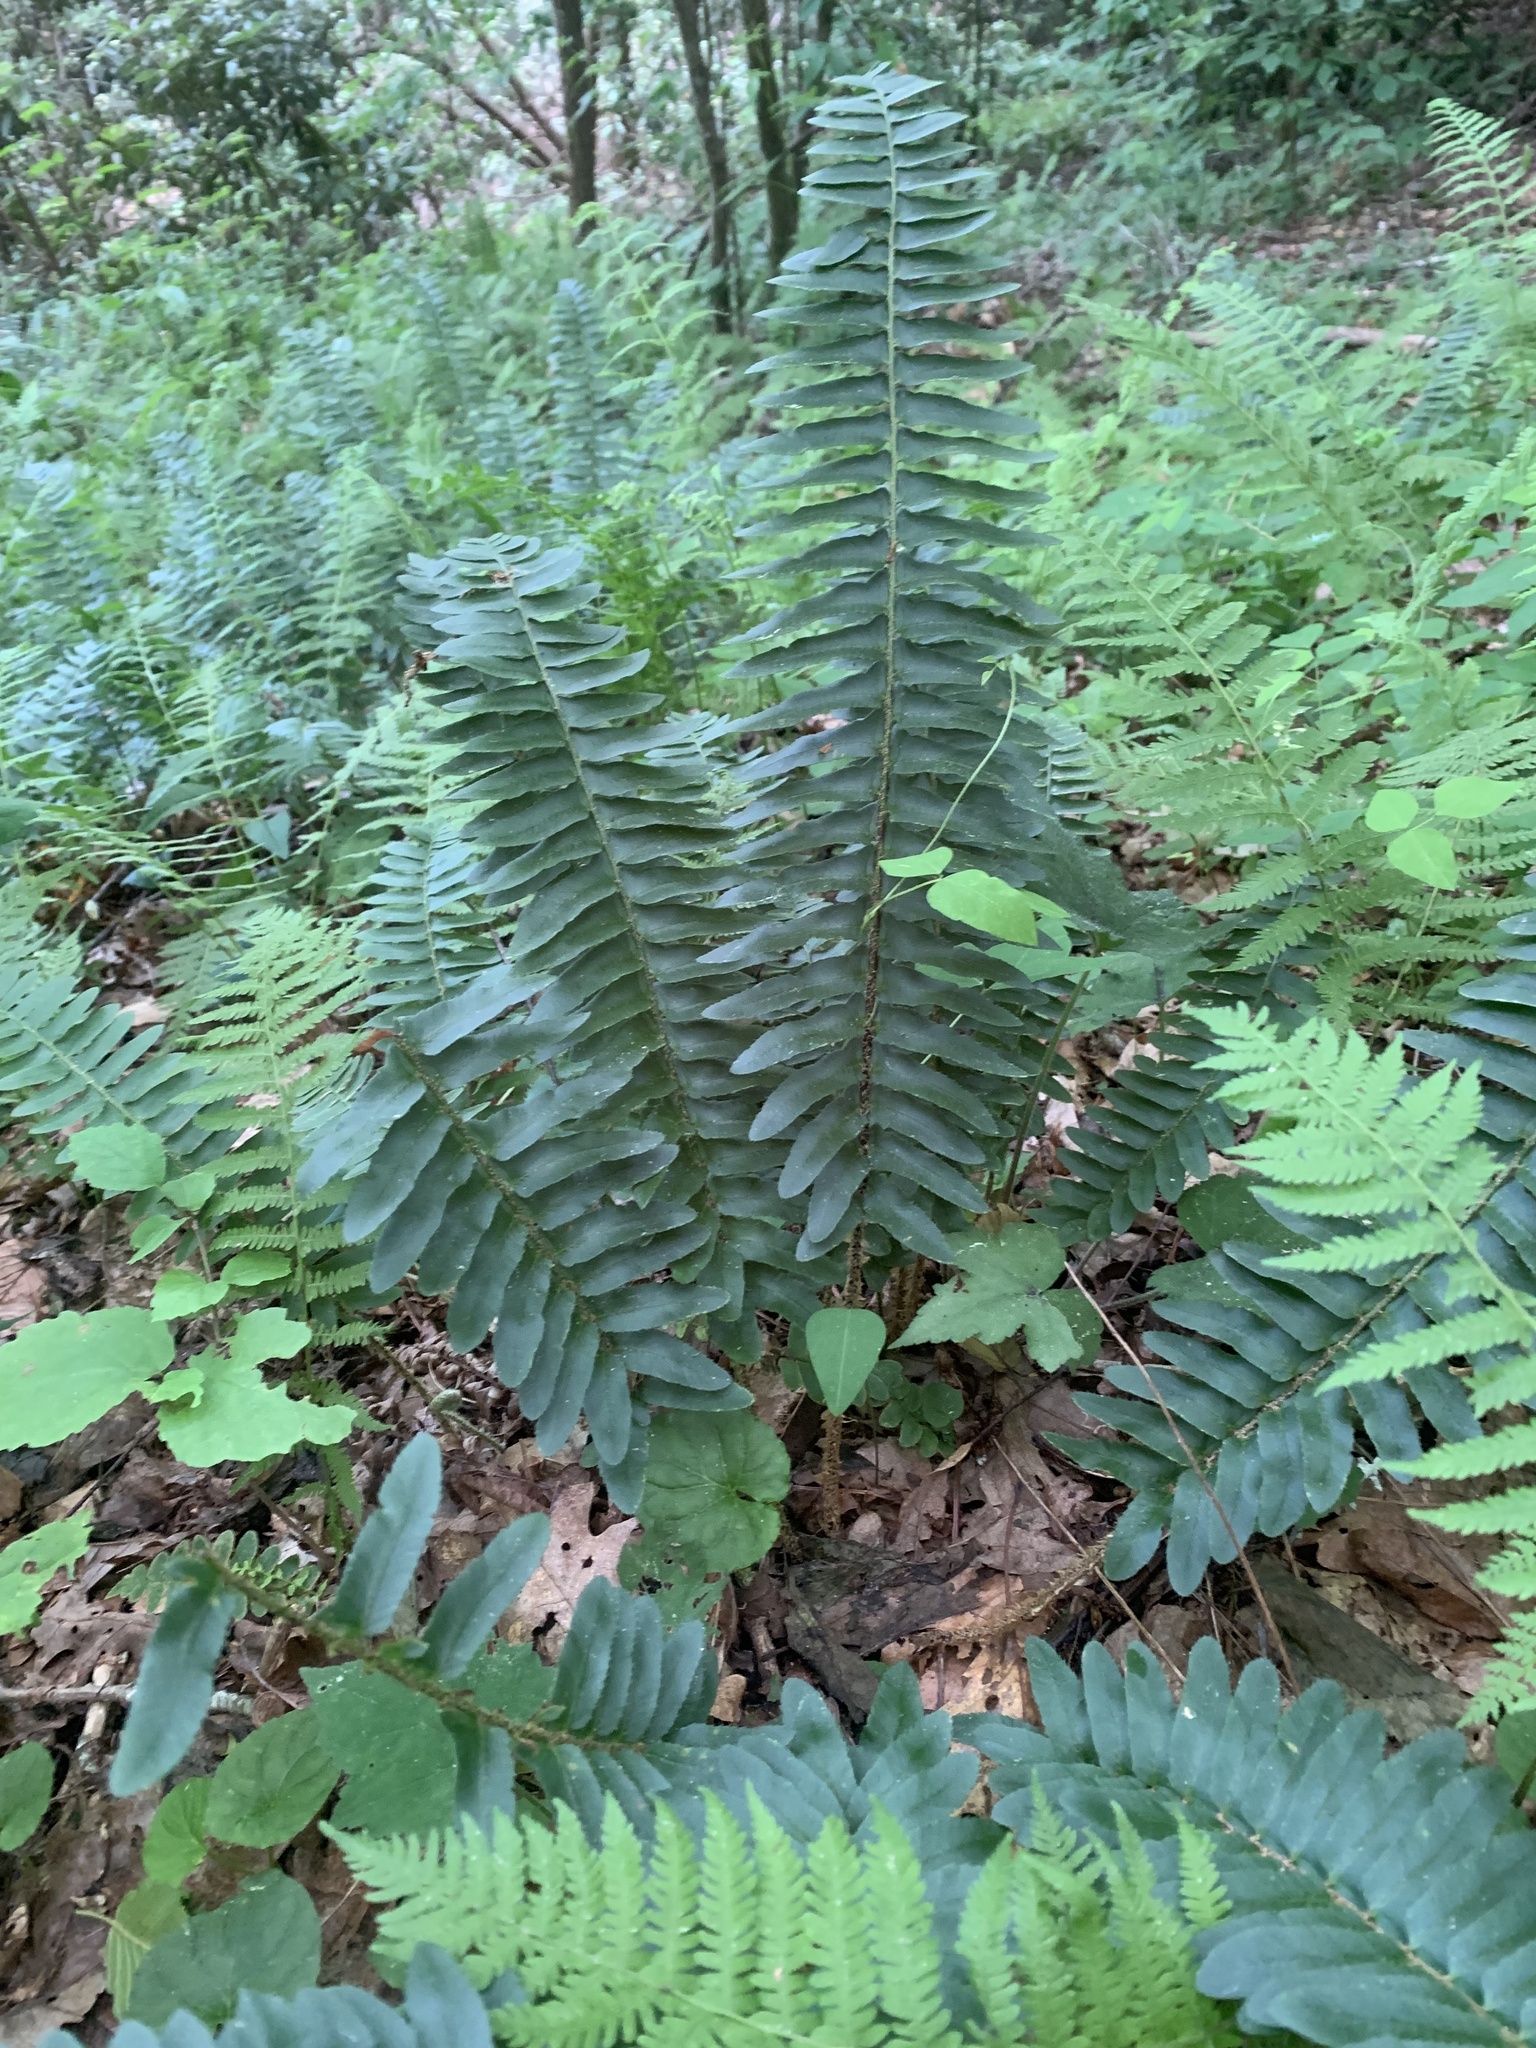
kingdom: Plantae
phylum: Tracheophyta
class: Polypodiopsida
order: Polypodiales
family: Dryopteridaceae
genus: Polystichum
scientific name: Polystichum acrostichoides
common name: Christmas fern
